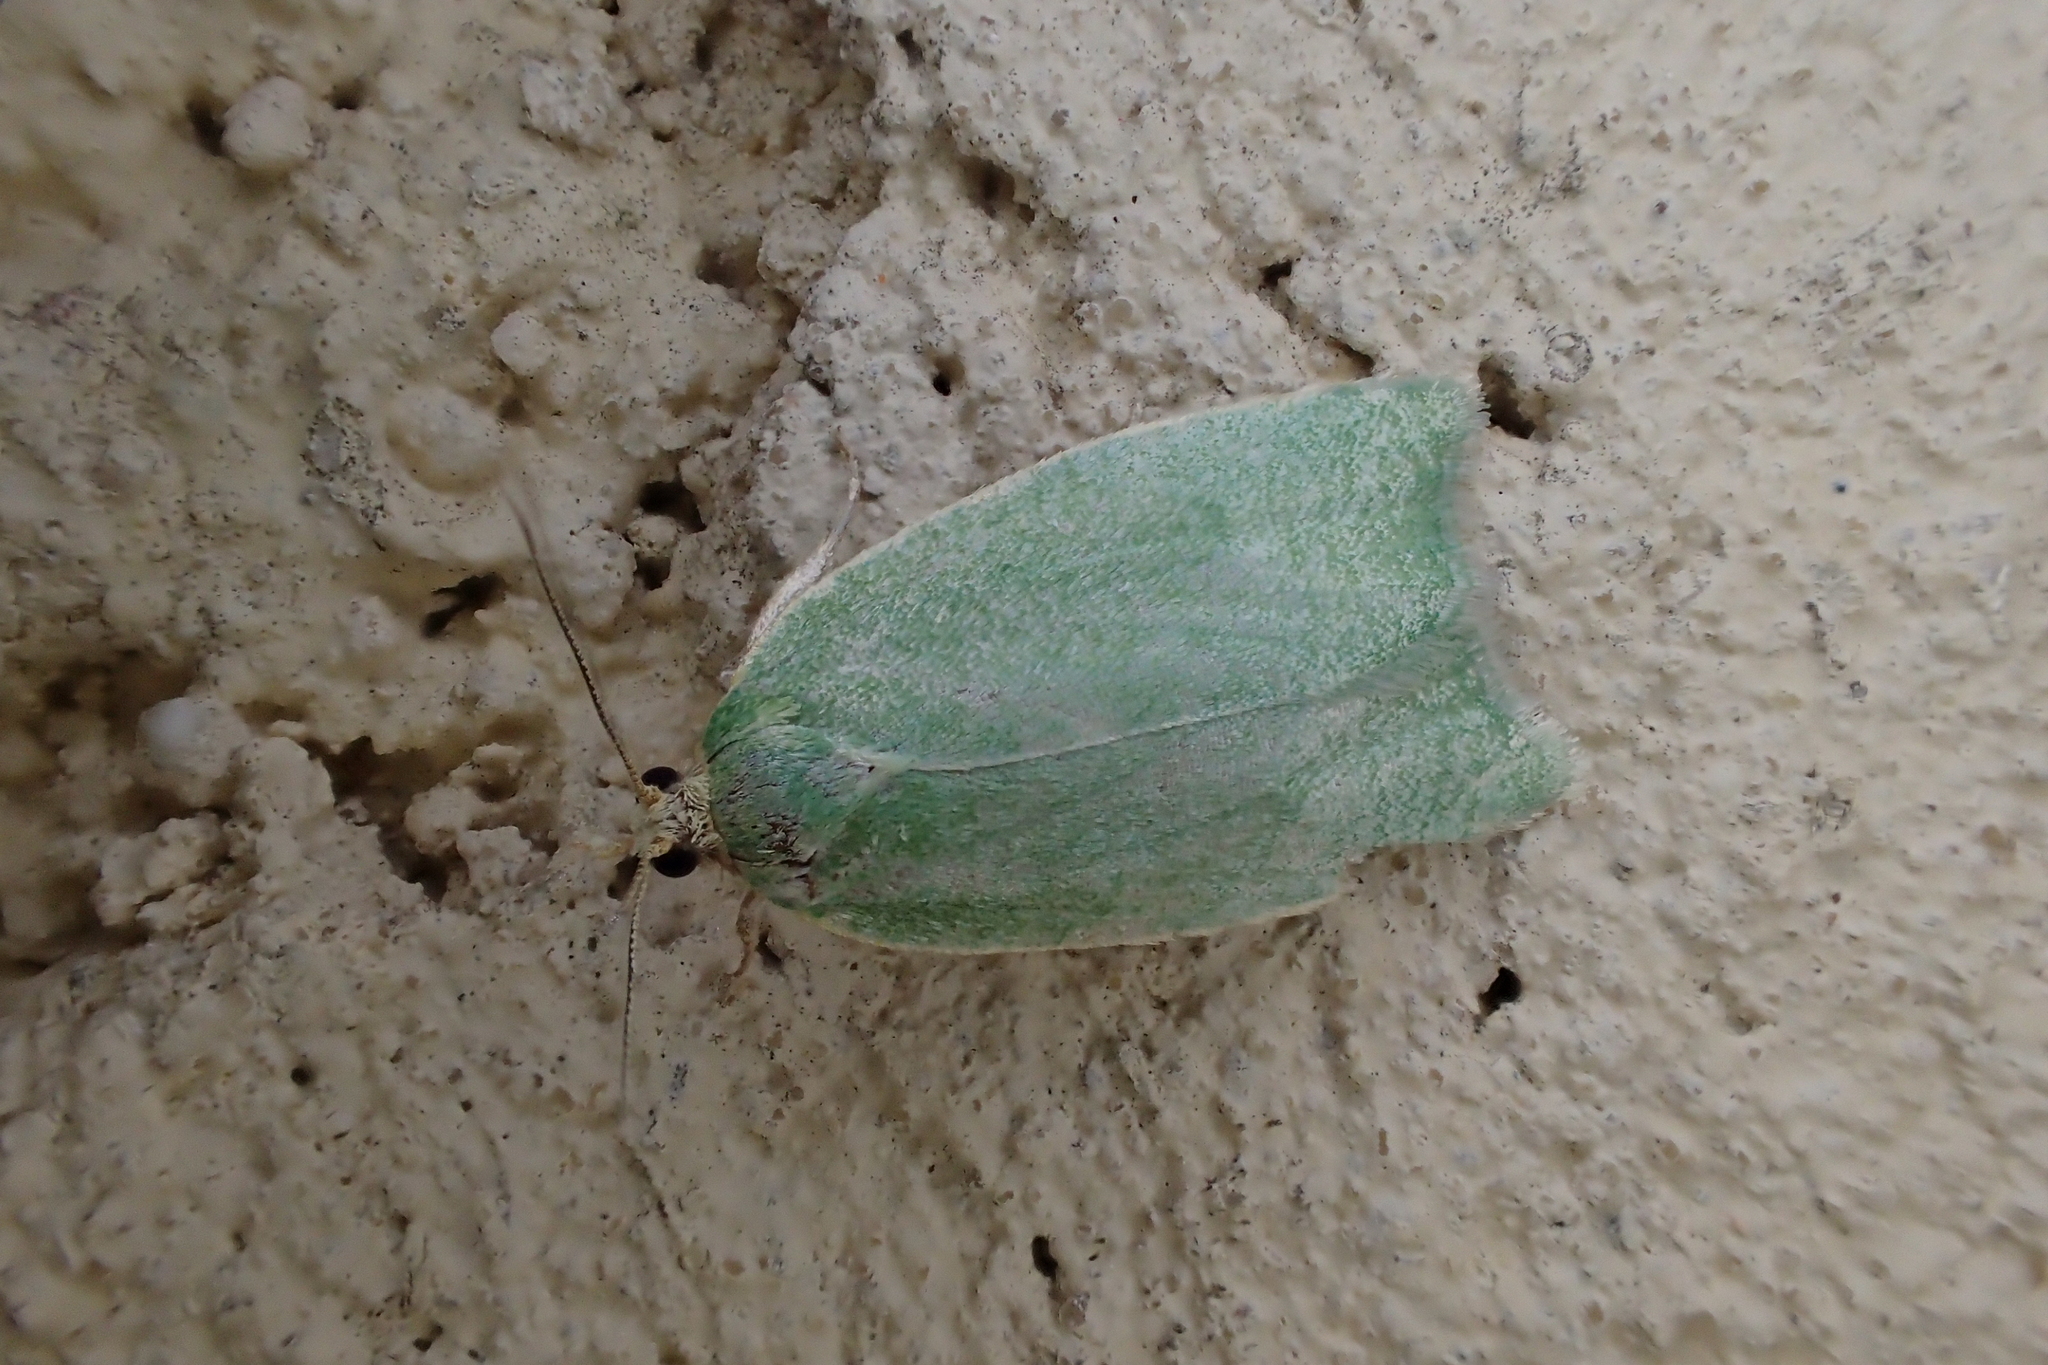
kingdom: Animalia
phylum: Arthropoda
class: Insecta
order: Lepidoptera
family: Tortricidae
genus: Tortrix
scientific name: Tortrix viridana
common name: Green oak tortrix
